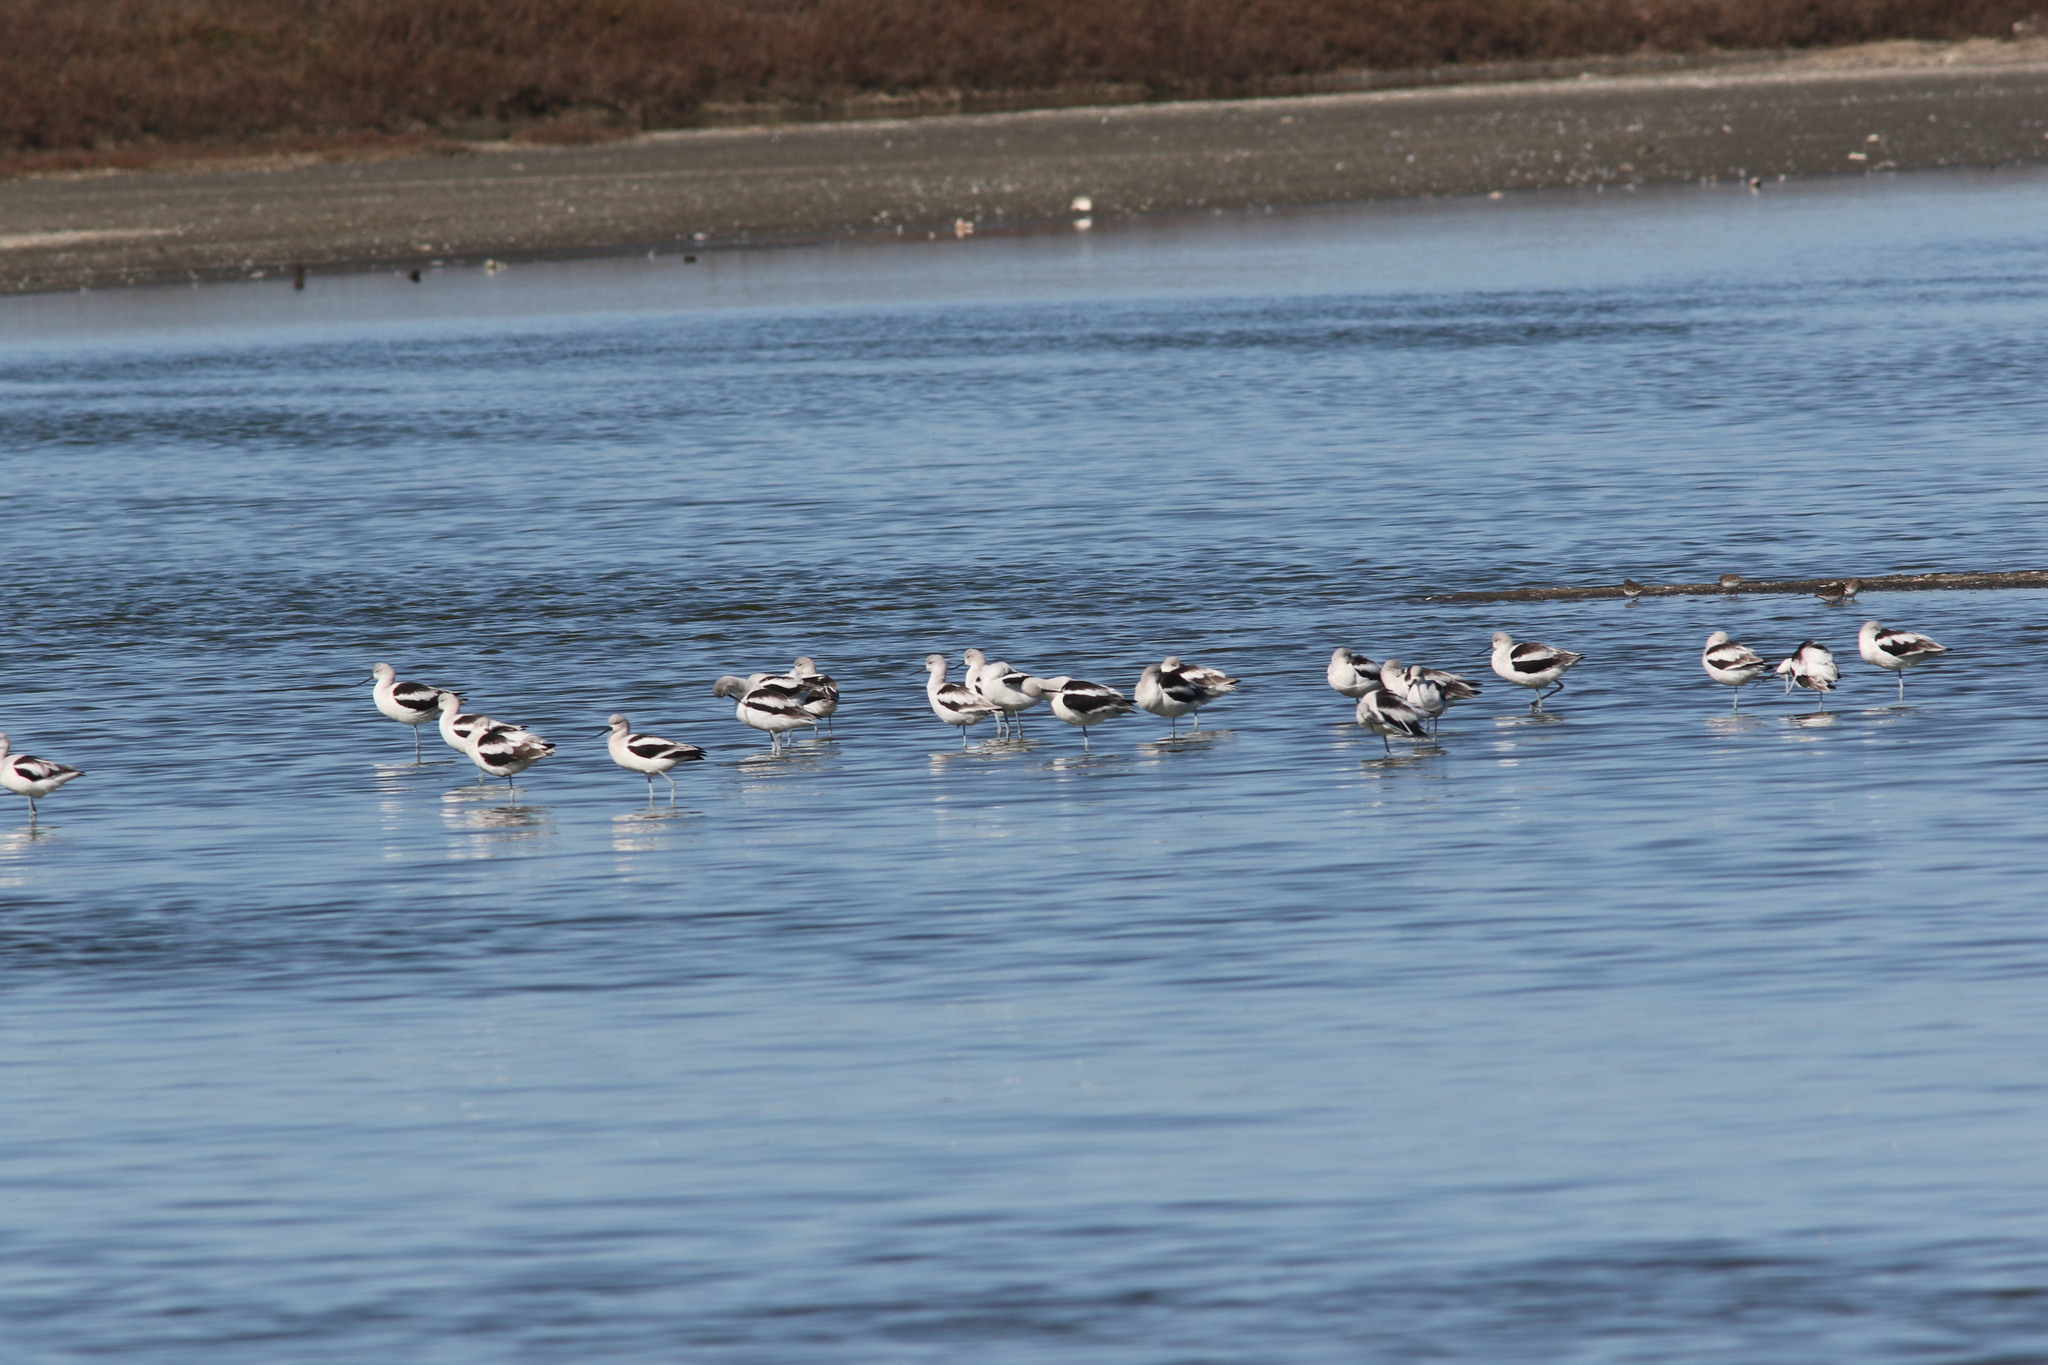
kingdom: Animalia
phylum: Chordata
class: Aves
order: Charadriiformes
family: Recurvirostridae
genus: Recurvirostra
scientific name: Recurvirostra americana
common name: American avocet
